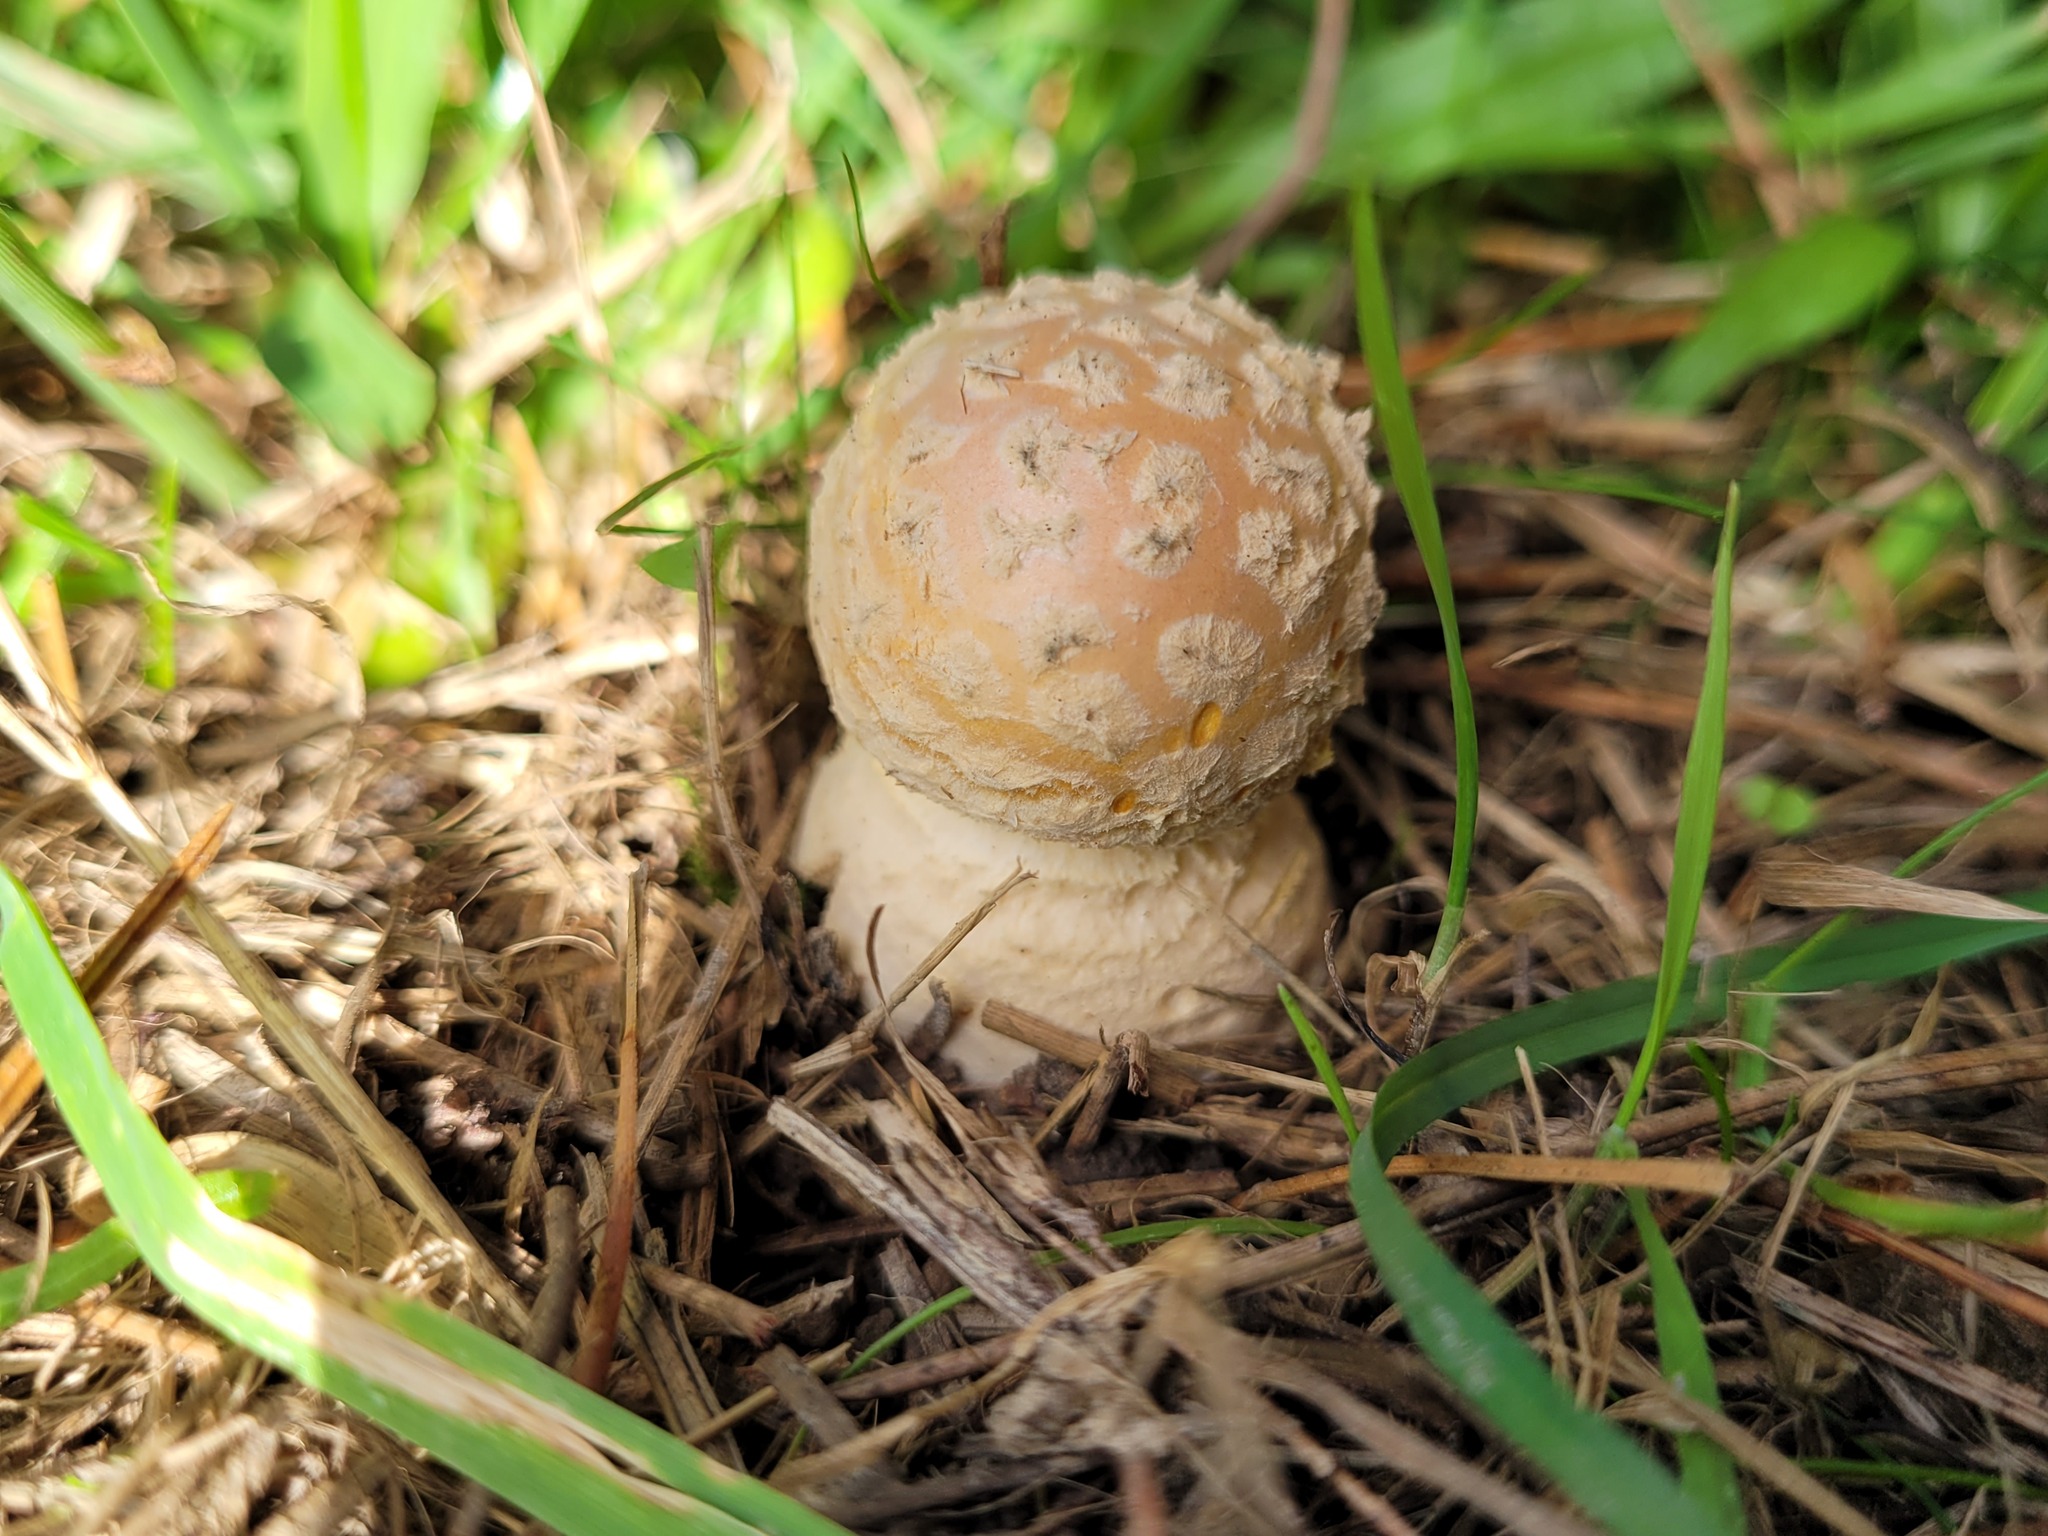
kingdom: Fungi
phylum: Basidiomycota
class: Agaricomycetes
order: Agaricales
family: Amanitaceae
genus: Amanita
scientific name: Amanita muscaria
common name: Fly agaric
